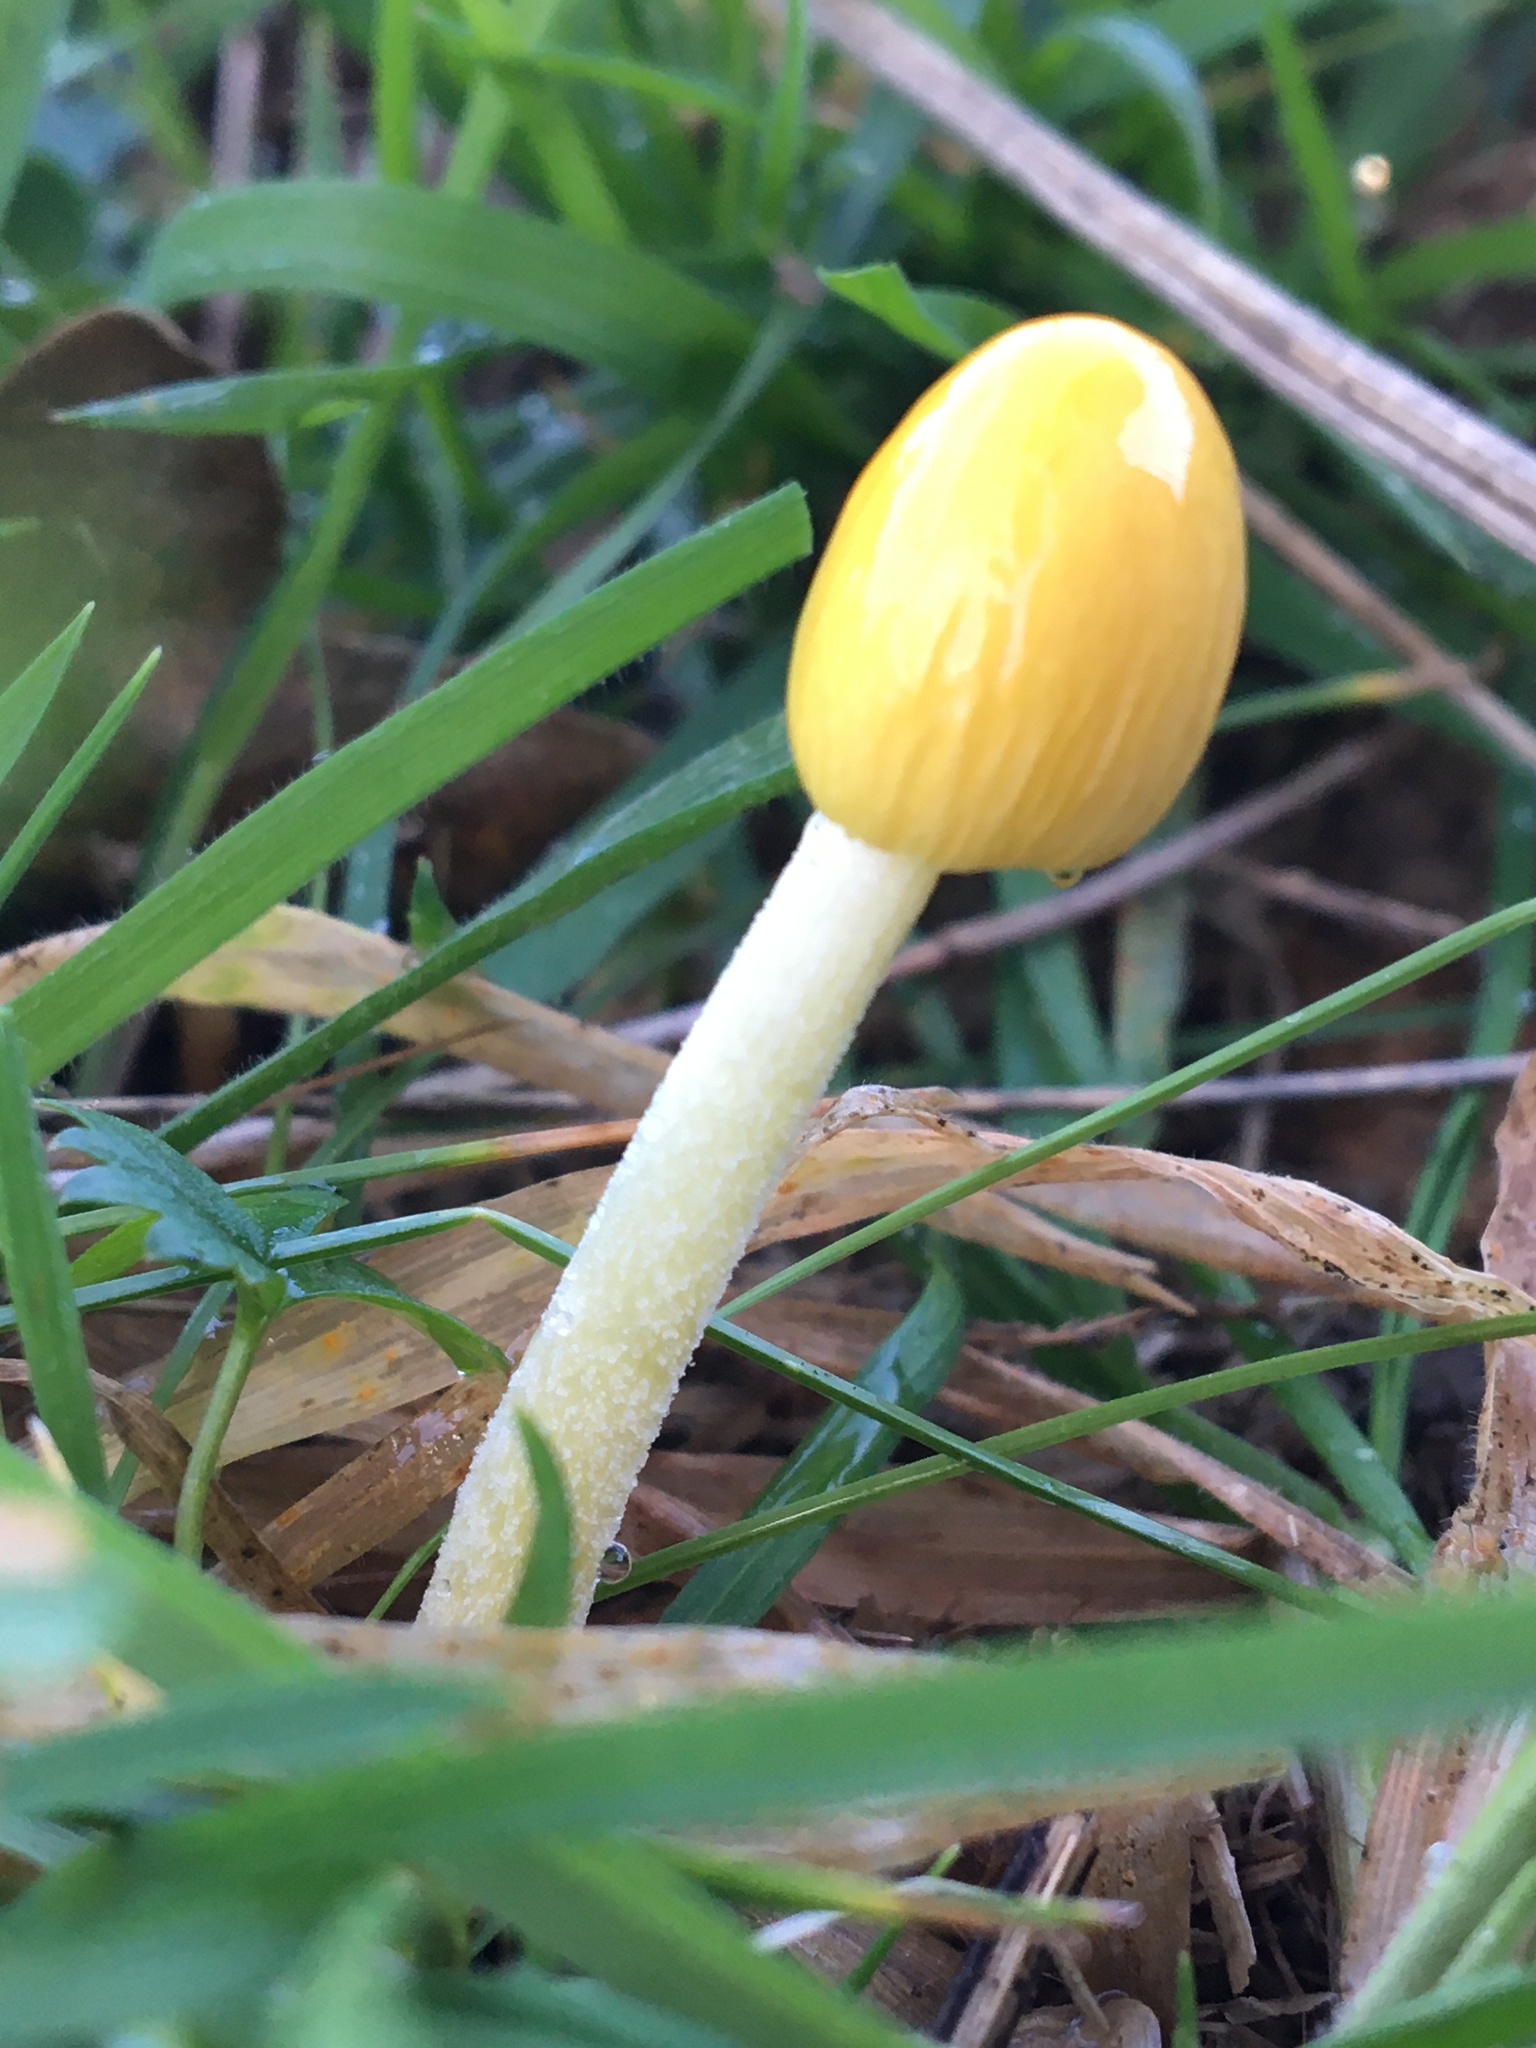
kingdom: Fungi
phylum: Basidiomycota
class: Agaricomycetes
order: Agaricales
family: Bolbitiaceae
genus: Bolbitius
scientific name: Bolbitius titubans
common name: Yellow fieldcap
